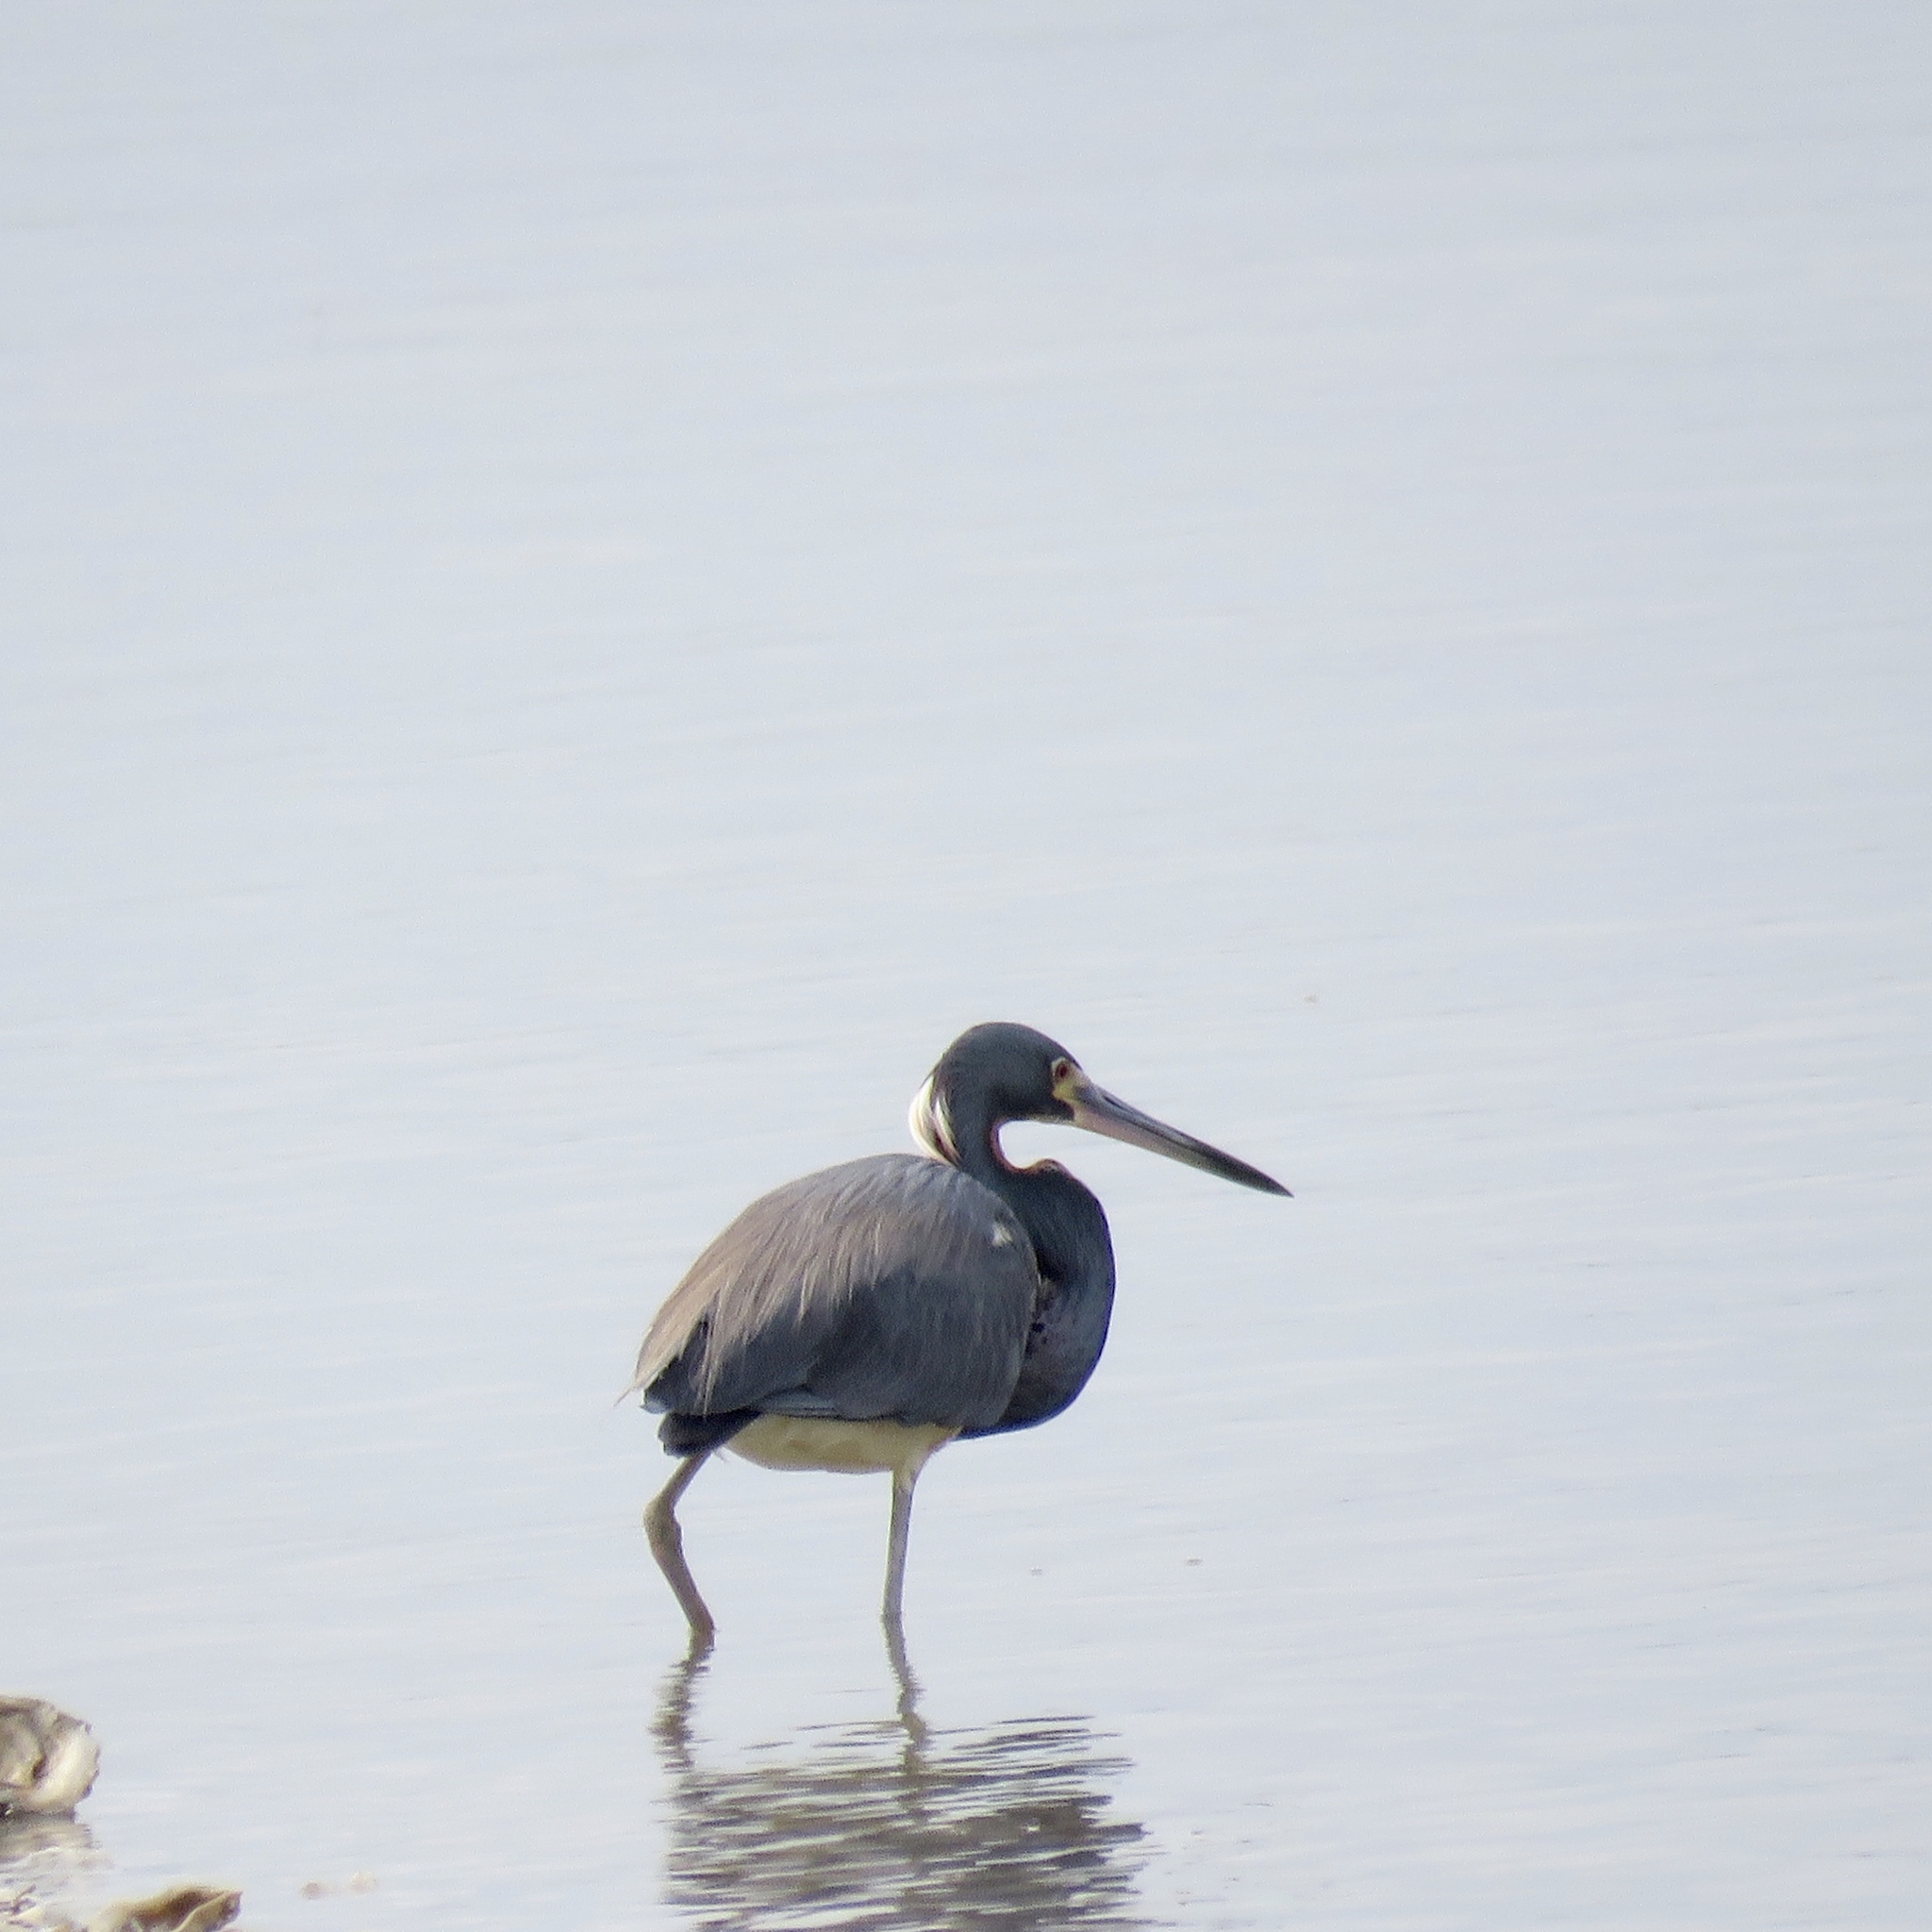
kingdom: Animalia
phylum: Chordata
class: Aves
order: Pelecaniformes
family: Ardeidae
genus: Egretta
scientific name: Egretta tricolor
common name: Tricolored heron
